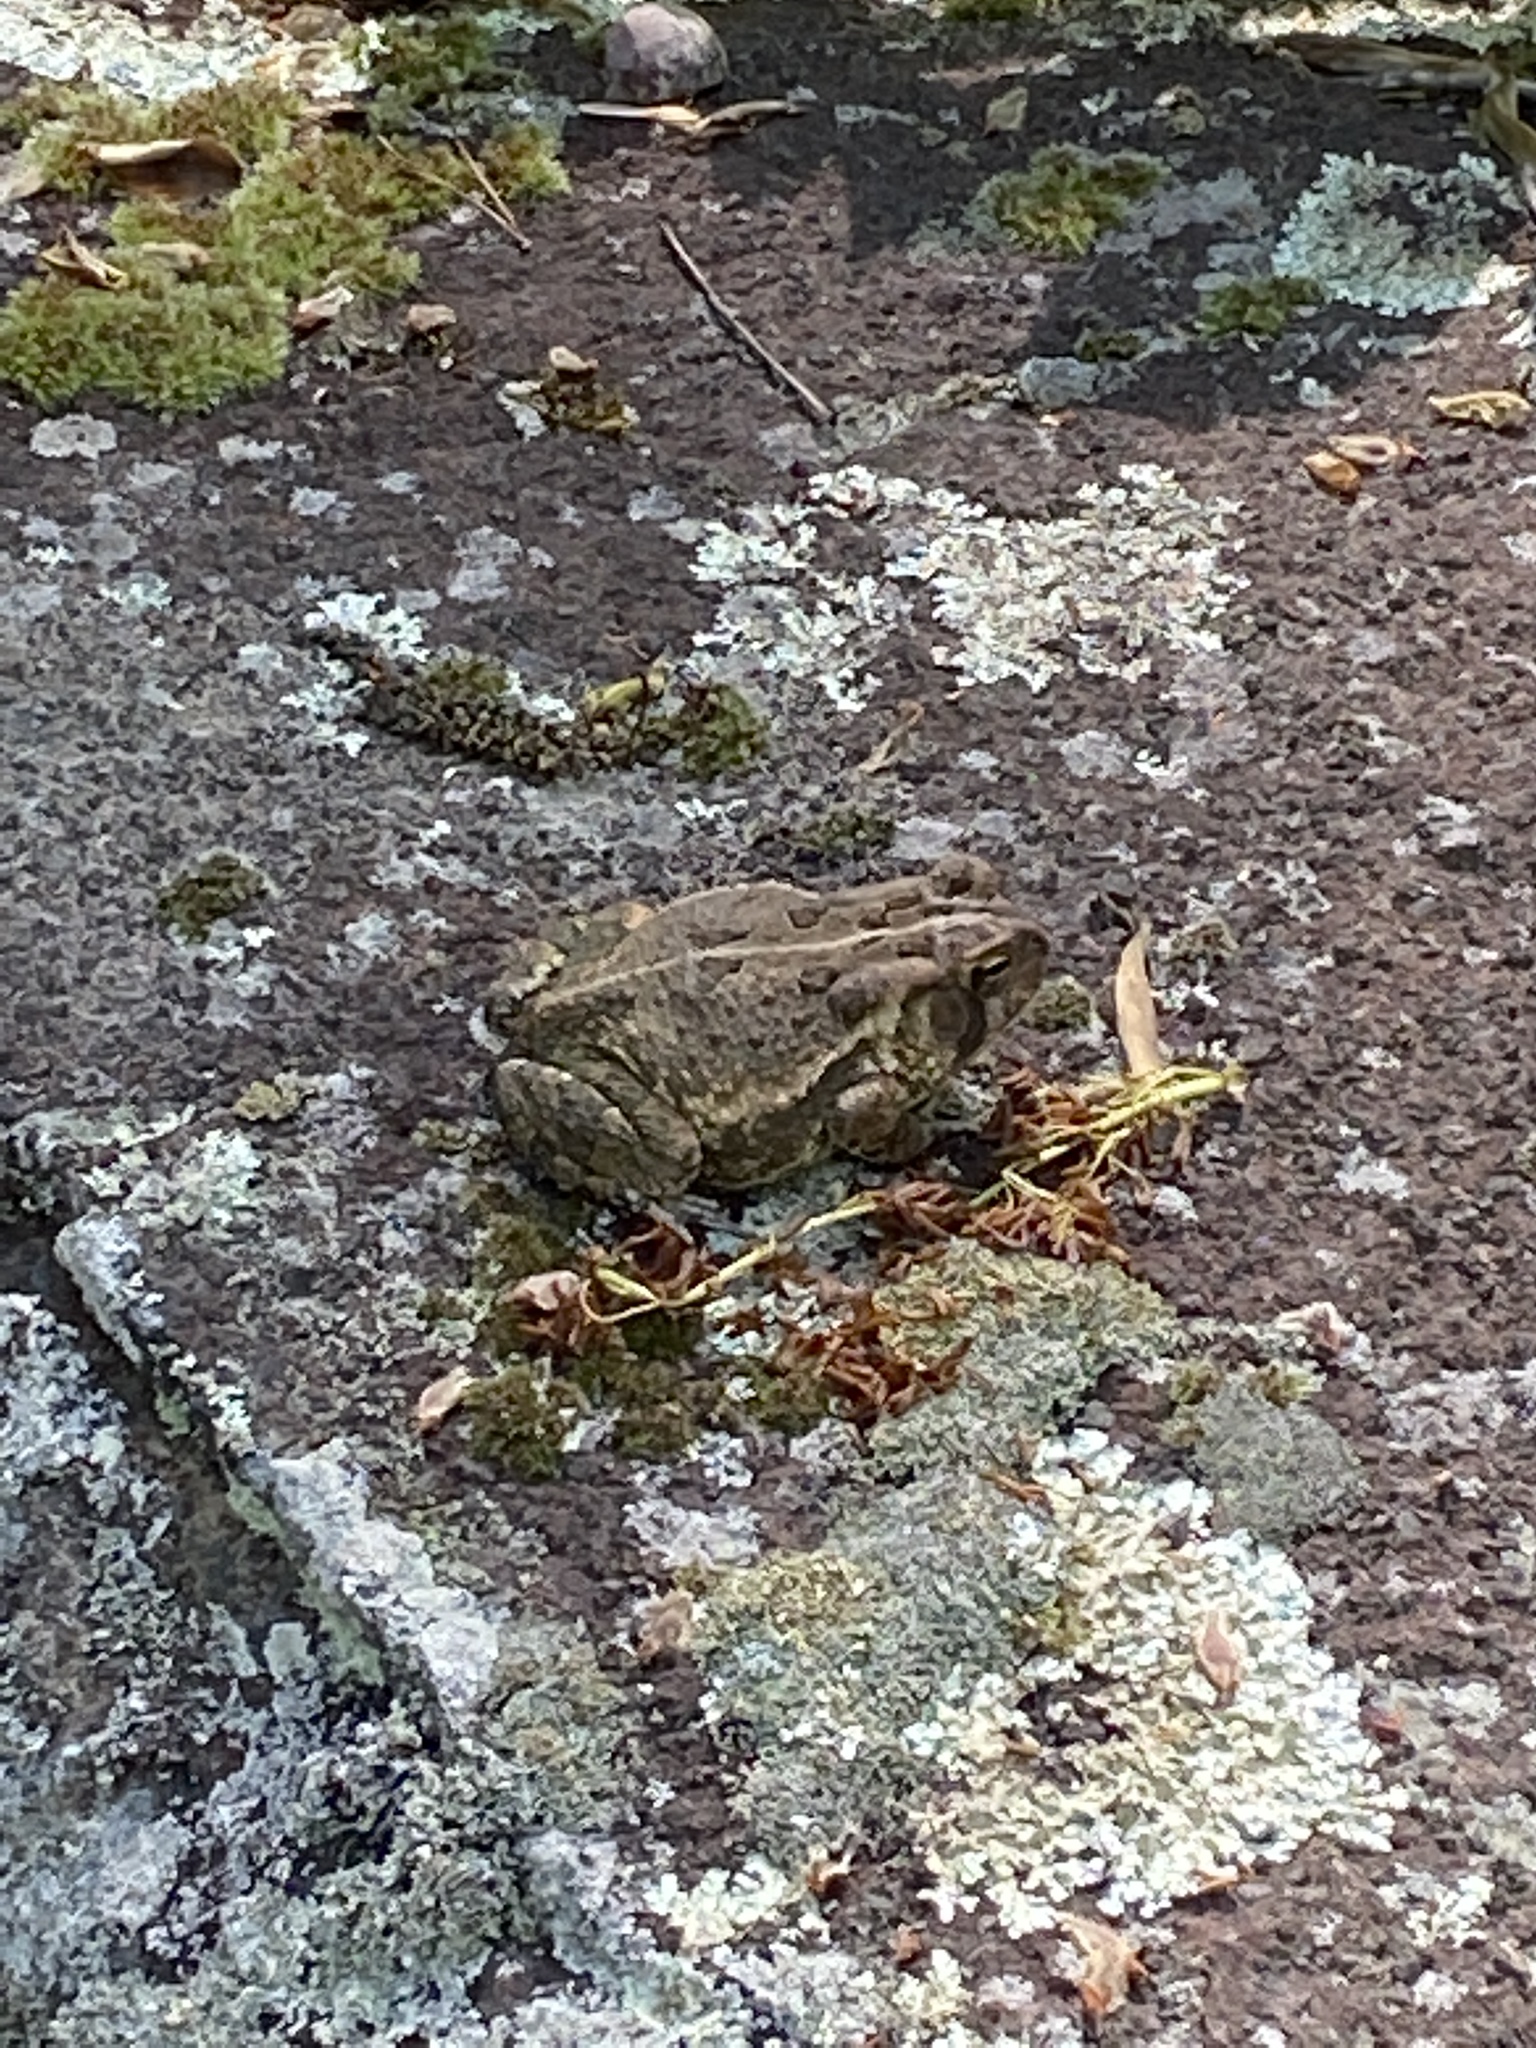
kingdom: Animalia
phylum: Chordata
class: Amphibia
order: Anura
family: Bufonidae
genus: Anaxyrus
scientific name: Anaxyrus fowleri
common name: Fowler's toad
